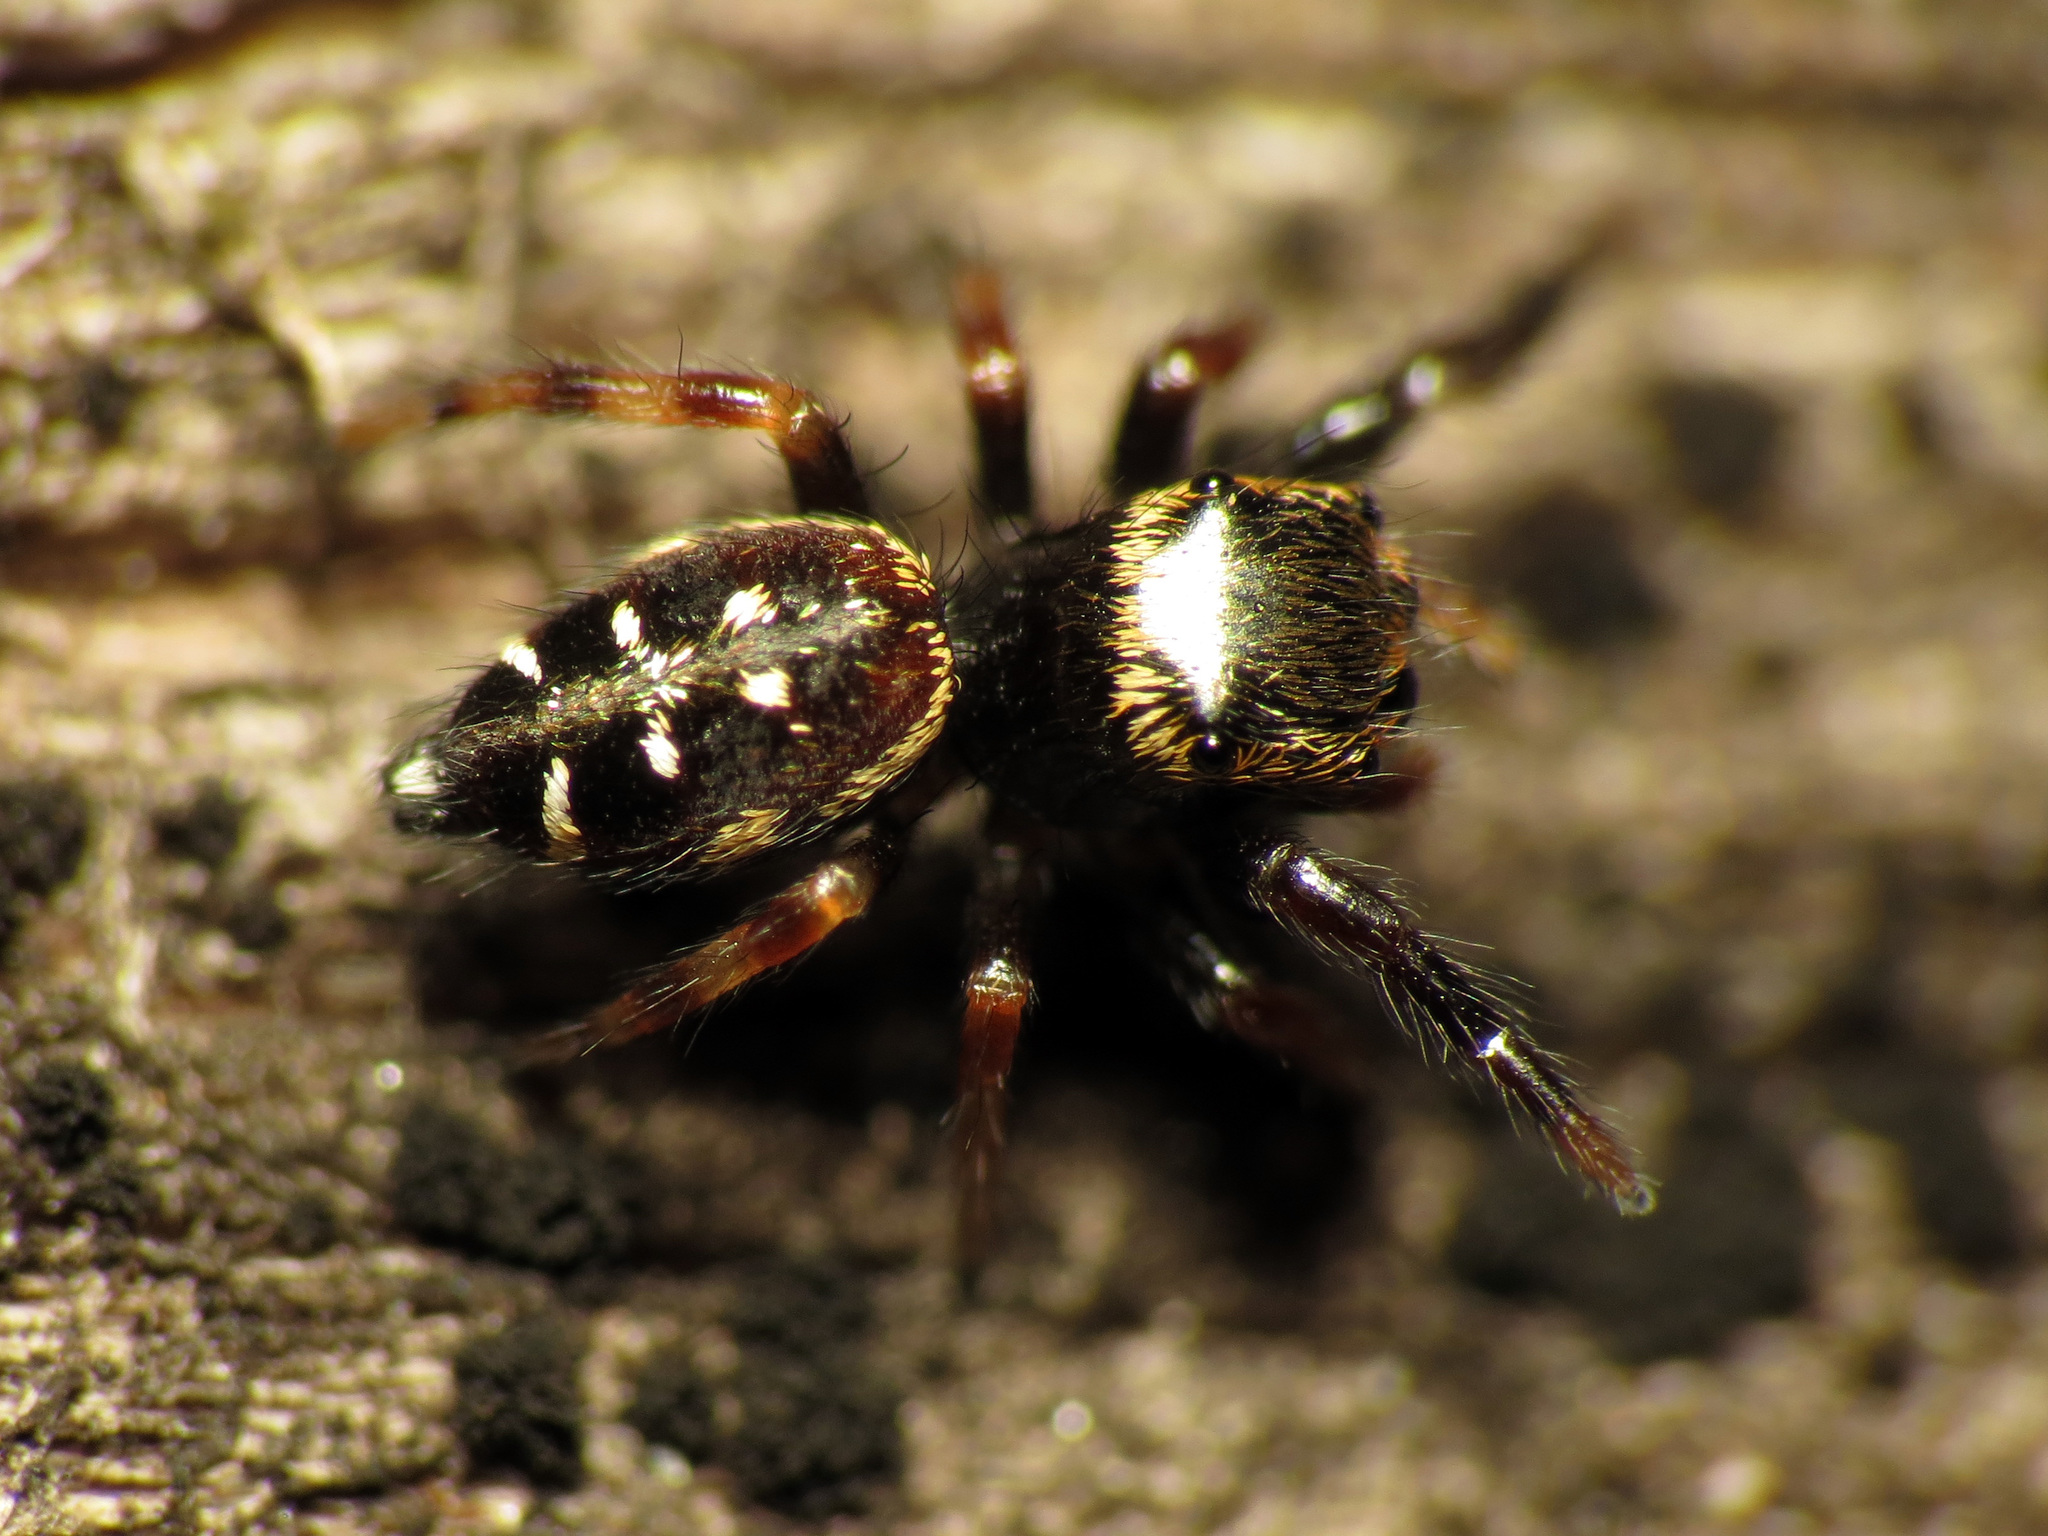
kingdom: Animalia
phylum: Arthropoda
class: Arachnida
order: Araneae
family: Salticidae
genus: Paraphidippus
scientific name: Paraphidippus aurantius
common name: Jumping spiders
